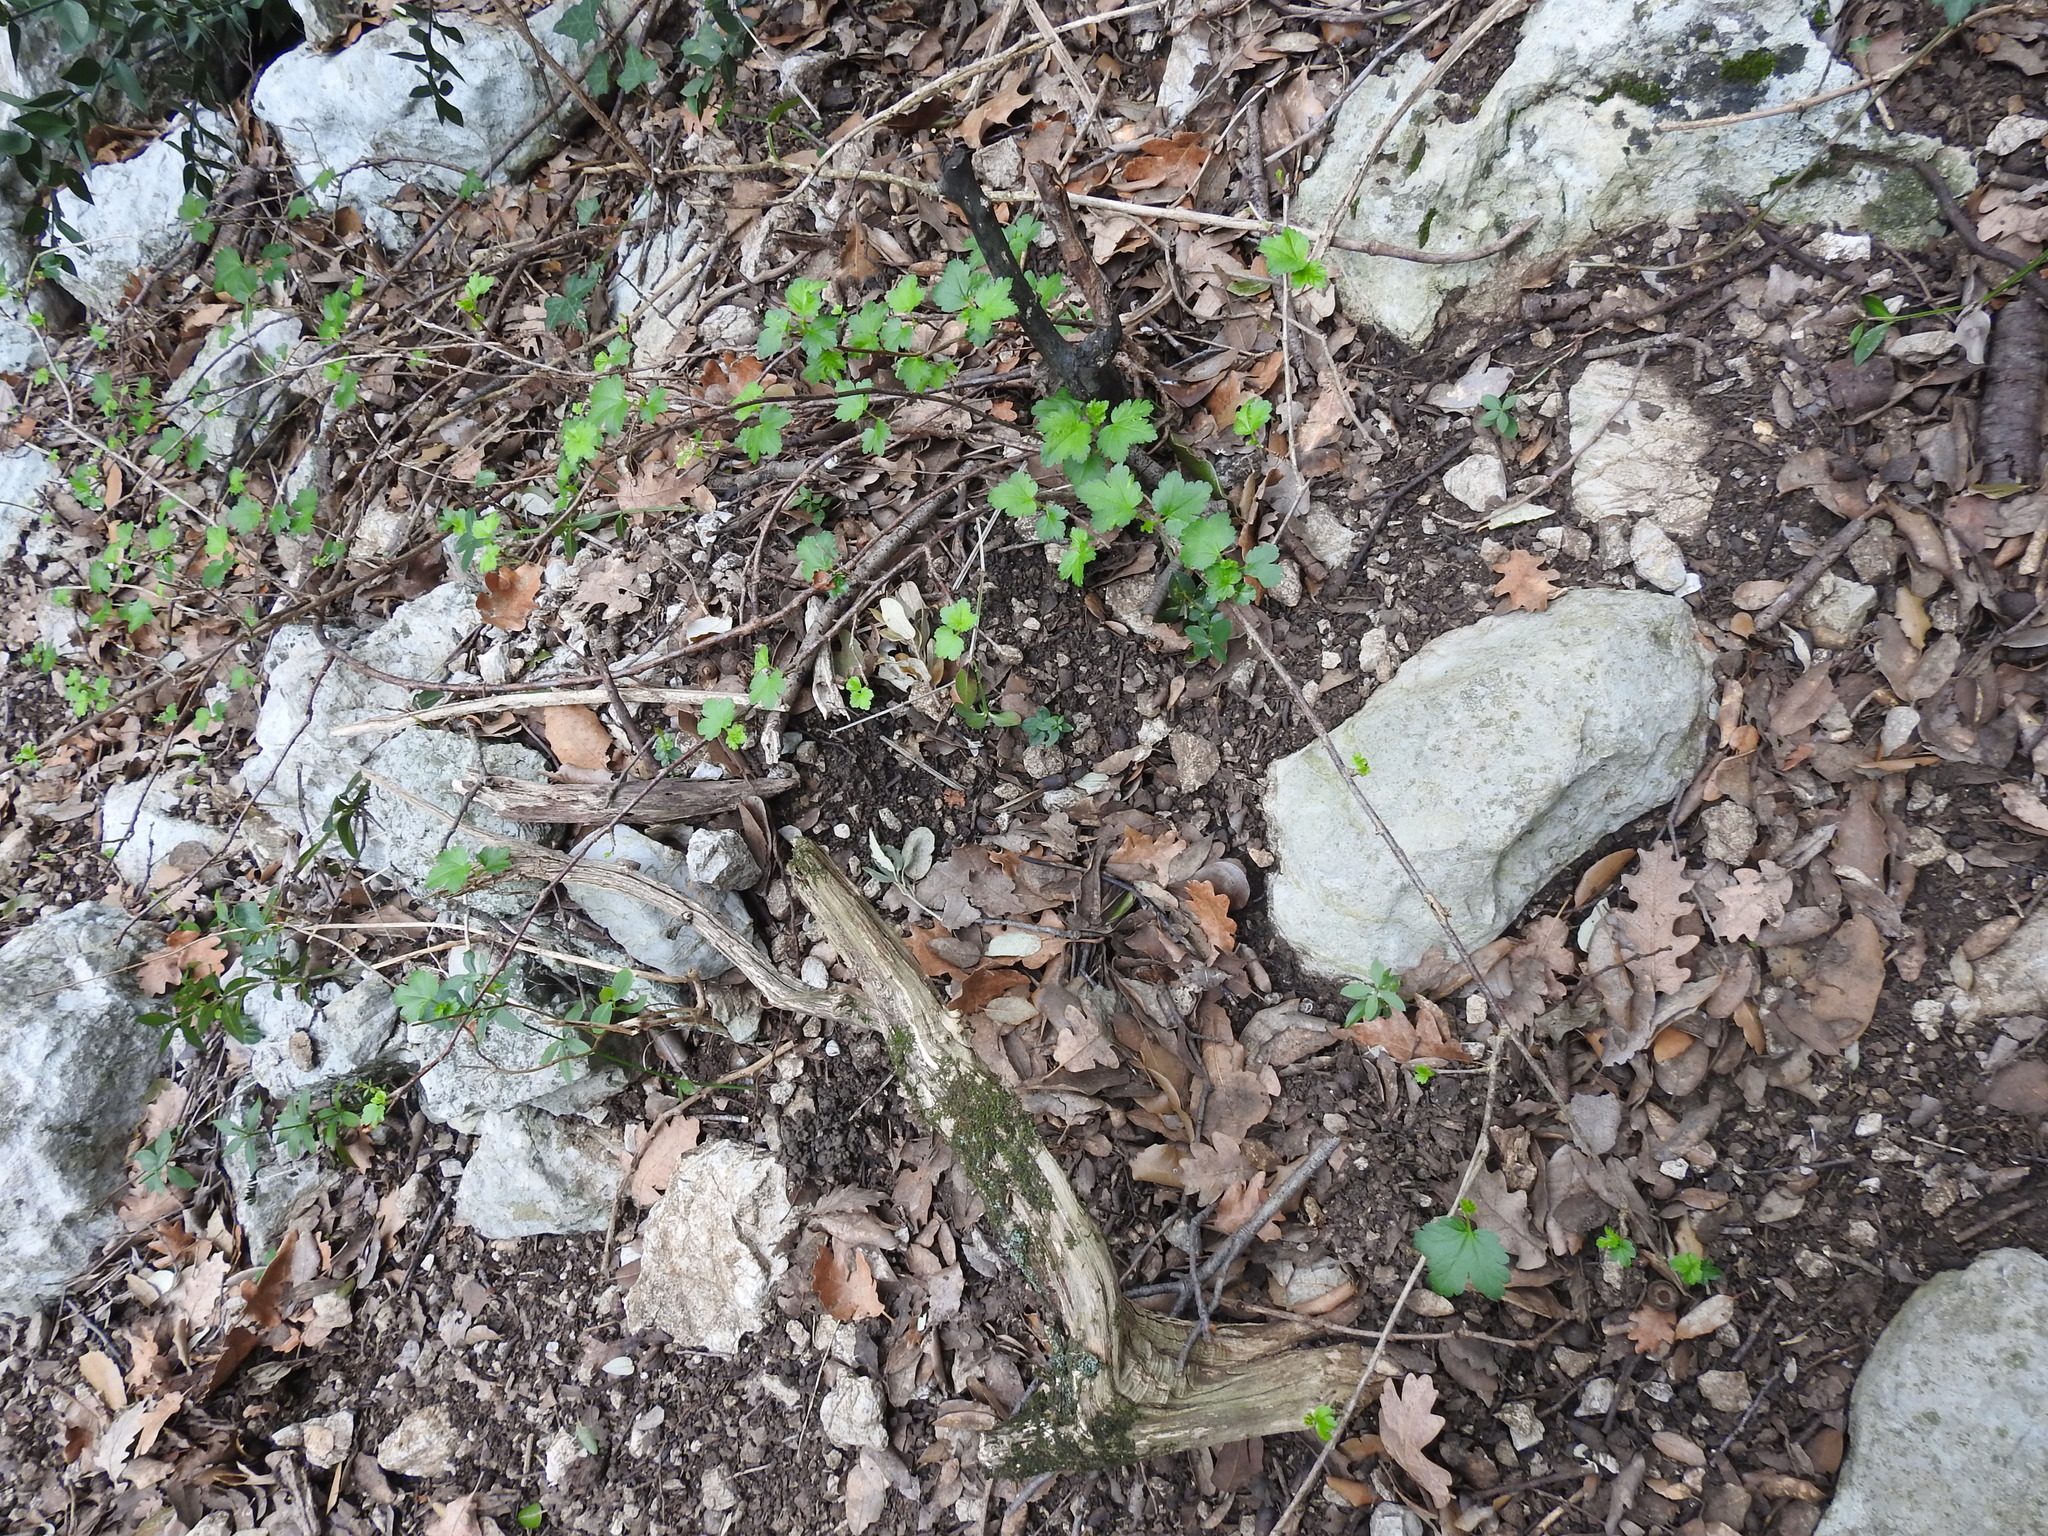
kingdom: Plantae
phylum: Tracheophyta
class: Magnoliopsida
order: Saxifragales
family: Grossulariaceae
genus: Ribes
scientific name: Ribes alpinum
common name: Alpine currant
